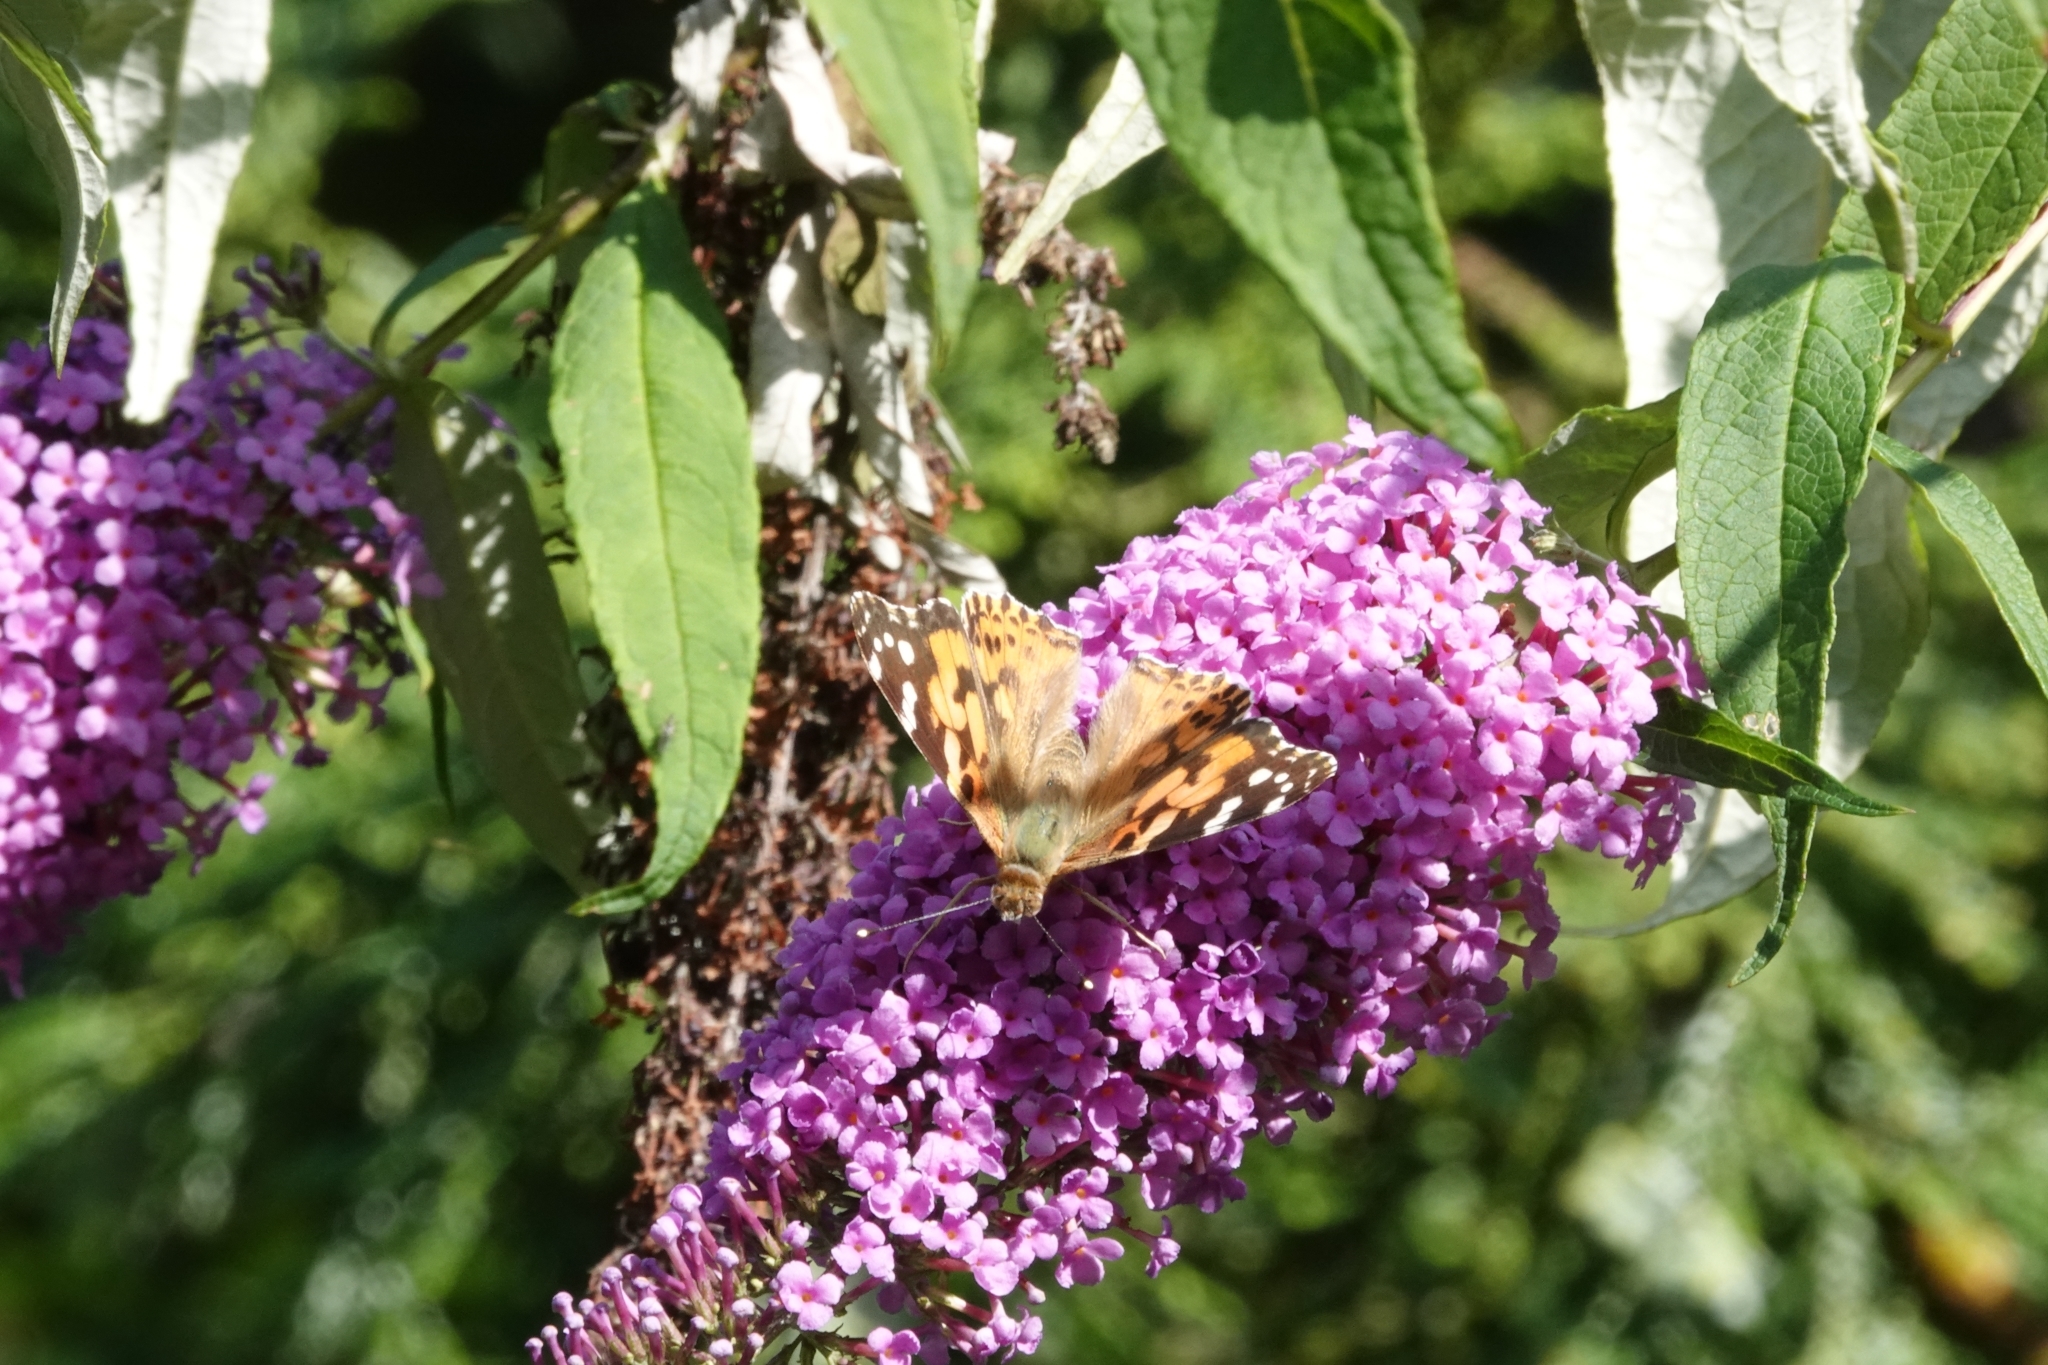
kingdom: Animalia
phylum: Arthropoda
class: Insecta
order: Lepidoptera
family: Nymphalidae
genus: Vanessa
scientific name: Vanessa cardui
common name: Painted lady
